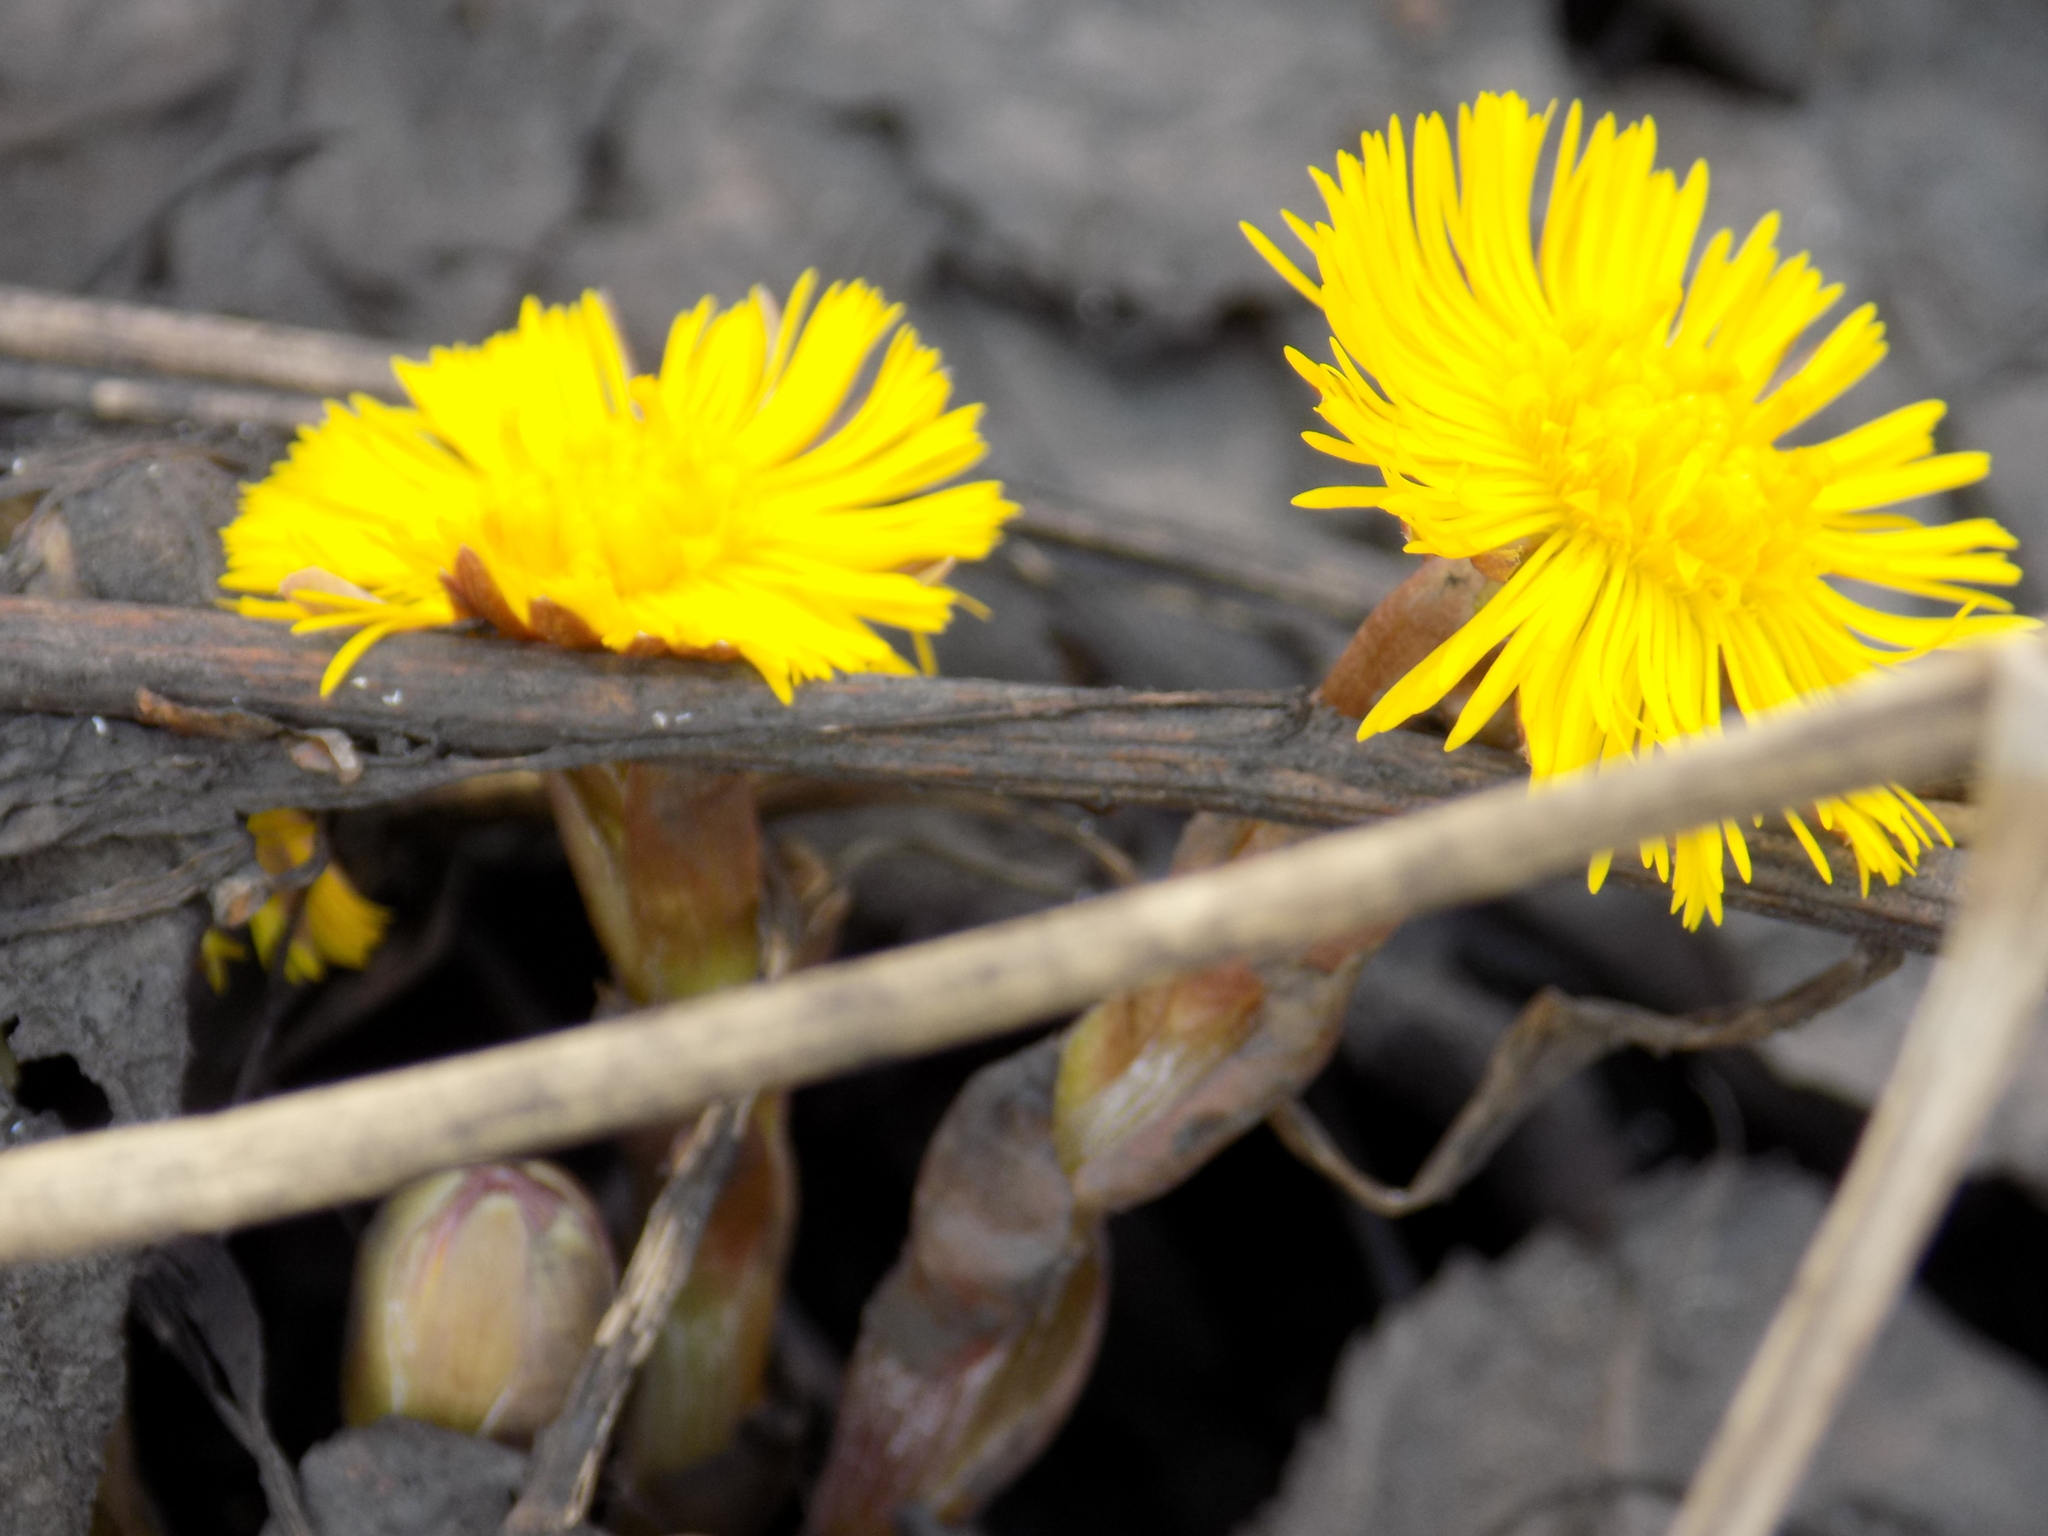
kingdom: Plantae
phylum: Tracheophyta
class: Magnoliopsida
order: Asterales
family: Asteraceae
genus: Tussilago
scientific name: Tussilago farfara
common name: Coltsfoot
